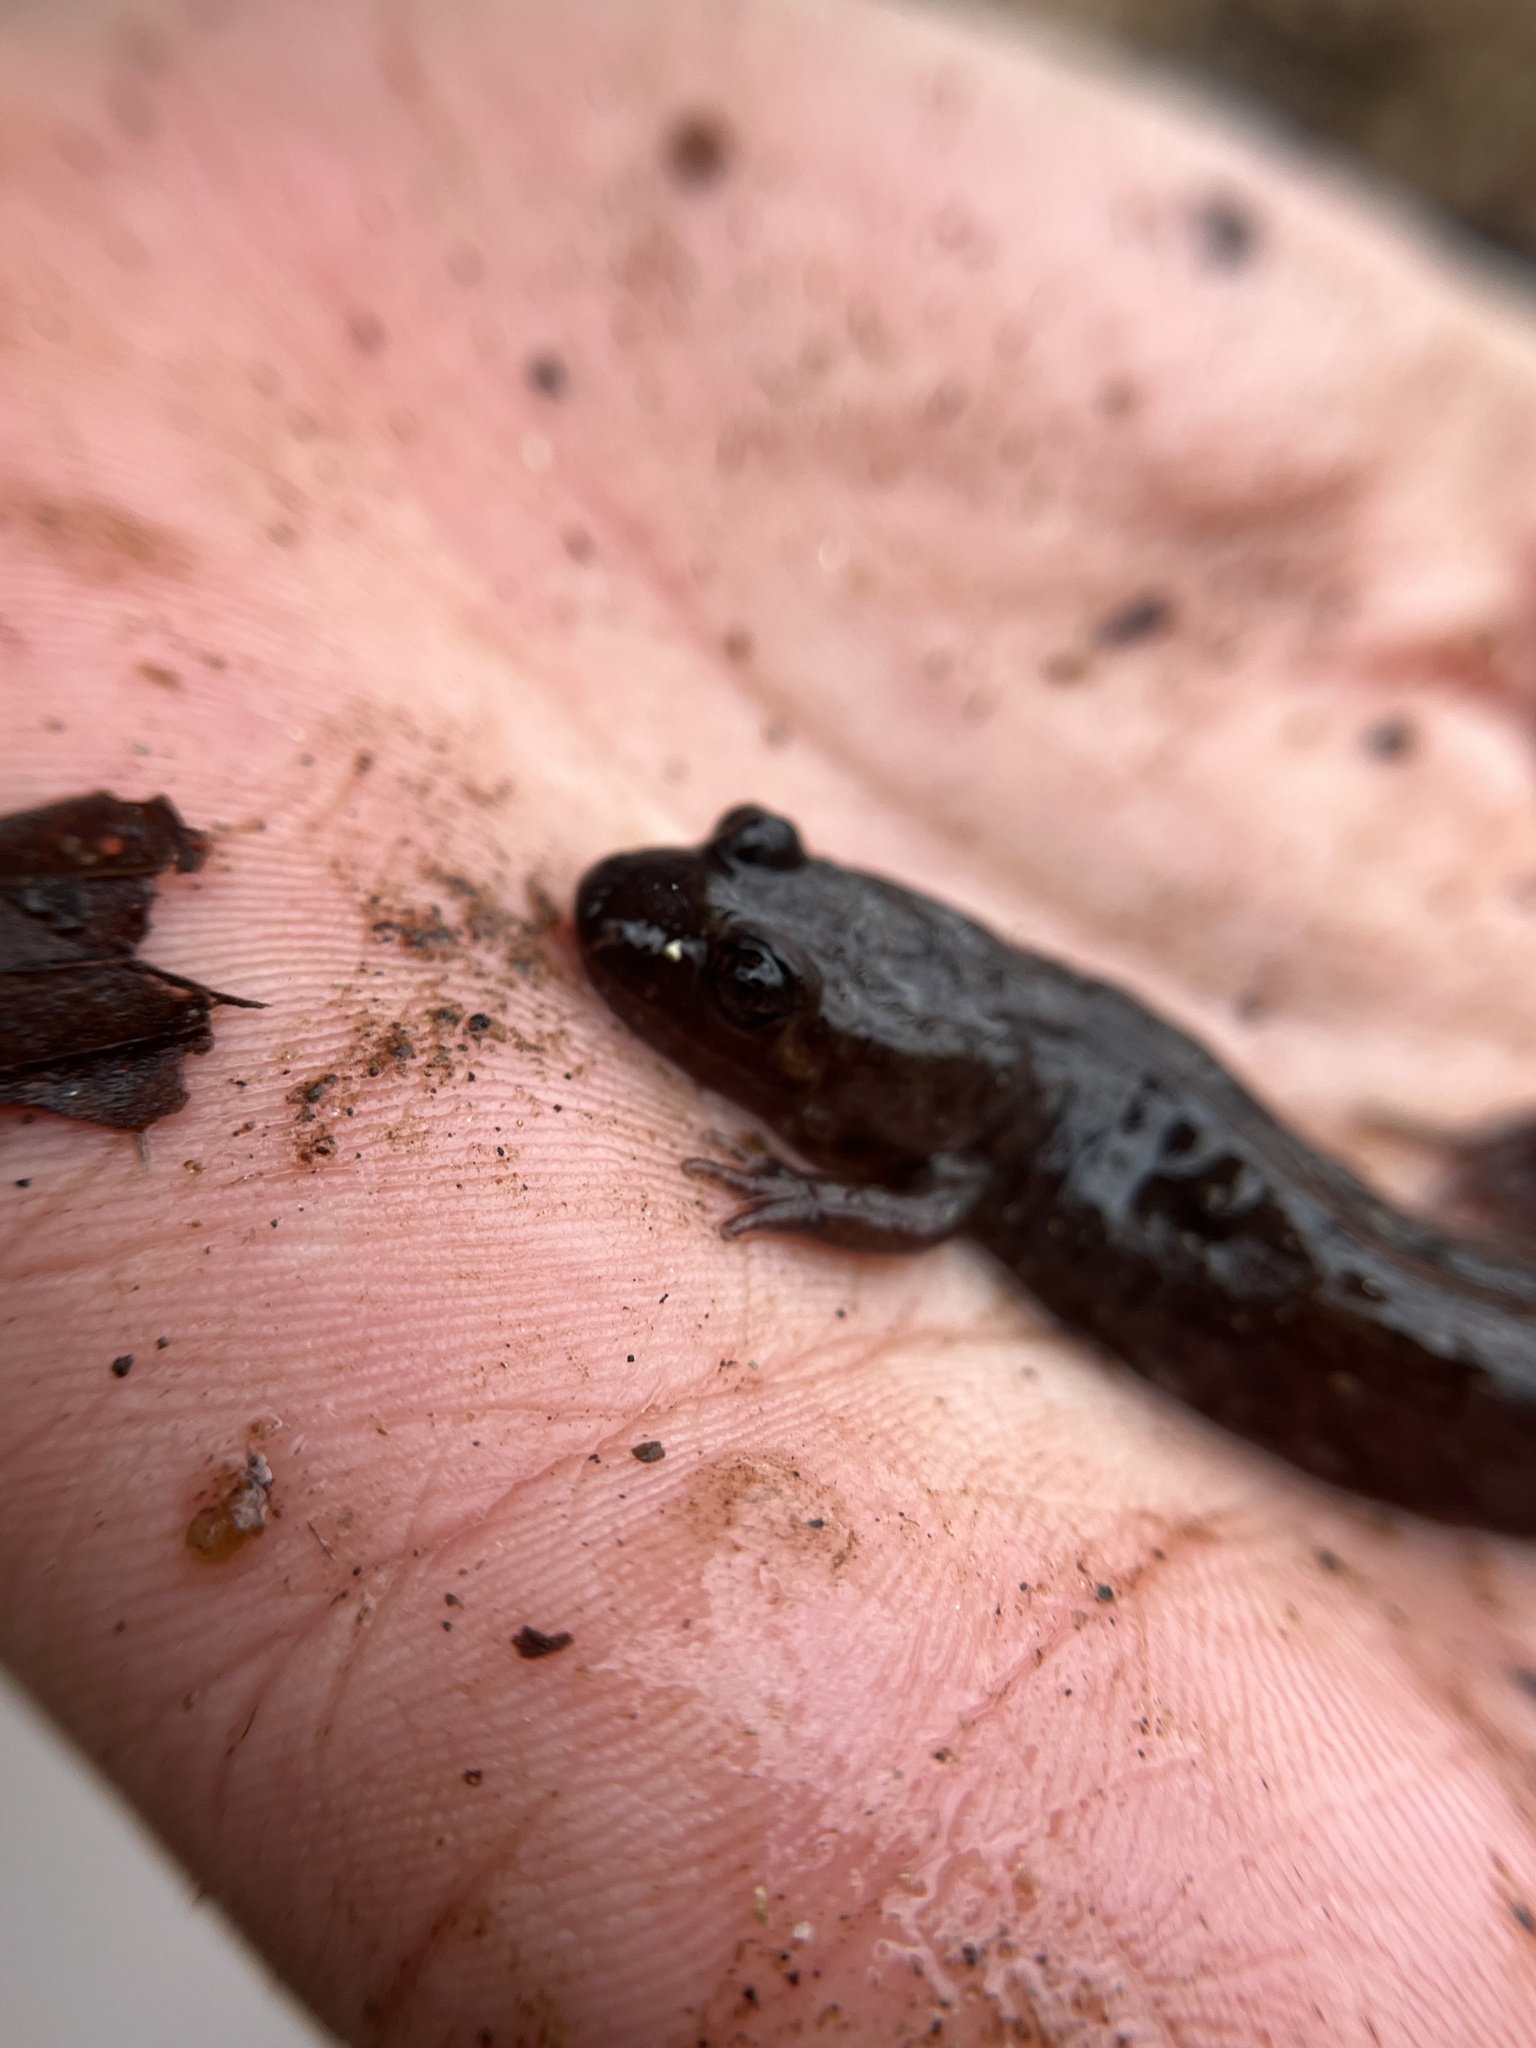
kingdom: Animalia
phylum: Chordata
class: Amphibia
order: Caudata
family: Plethodontidae
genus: Desmognathus
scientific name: Desmognathus planiceps
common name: Flat-headed salamander
